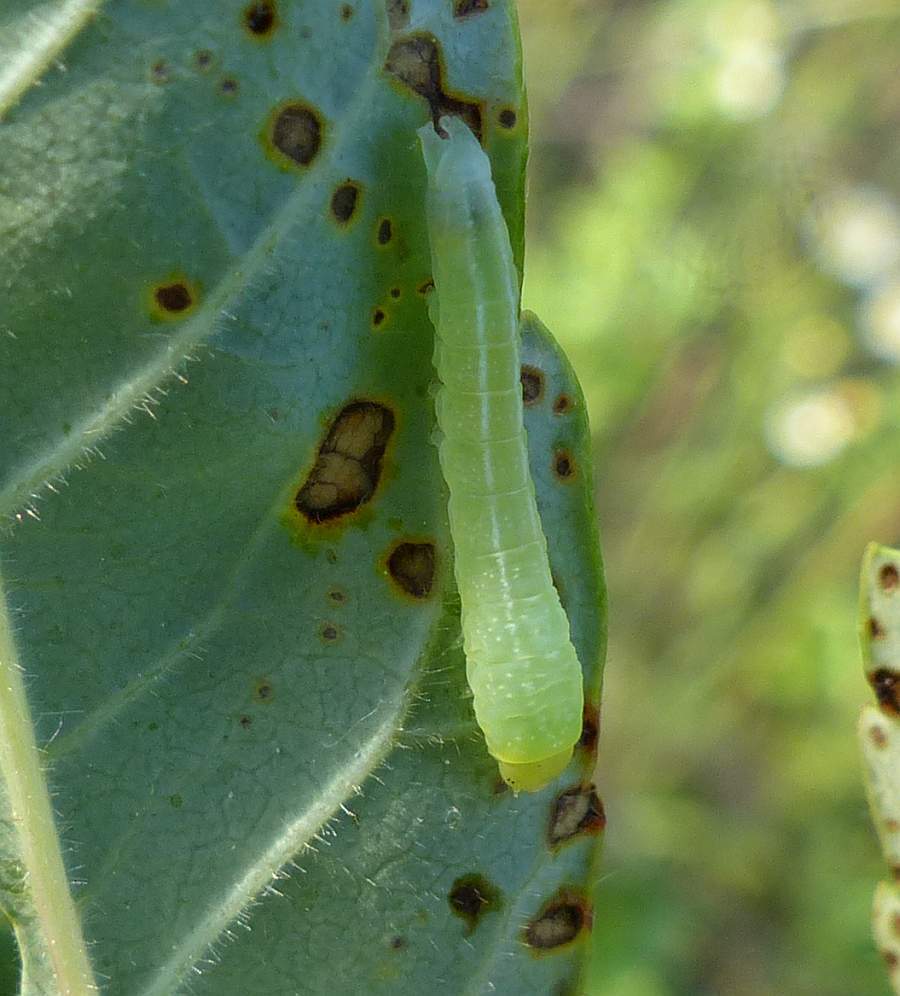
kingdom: Animalia
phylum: Arthropoda
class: Insecta
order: Lepidoptera
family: Euteliidae
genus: Marathyssa
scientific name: Marathyssa inficita
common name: Dark marathyssa moth
